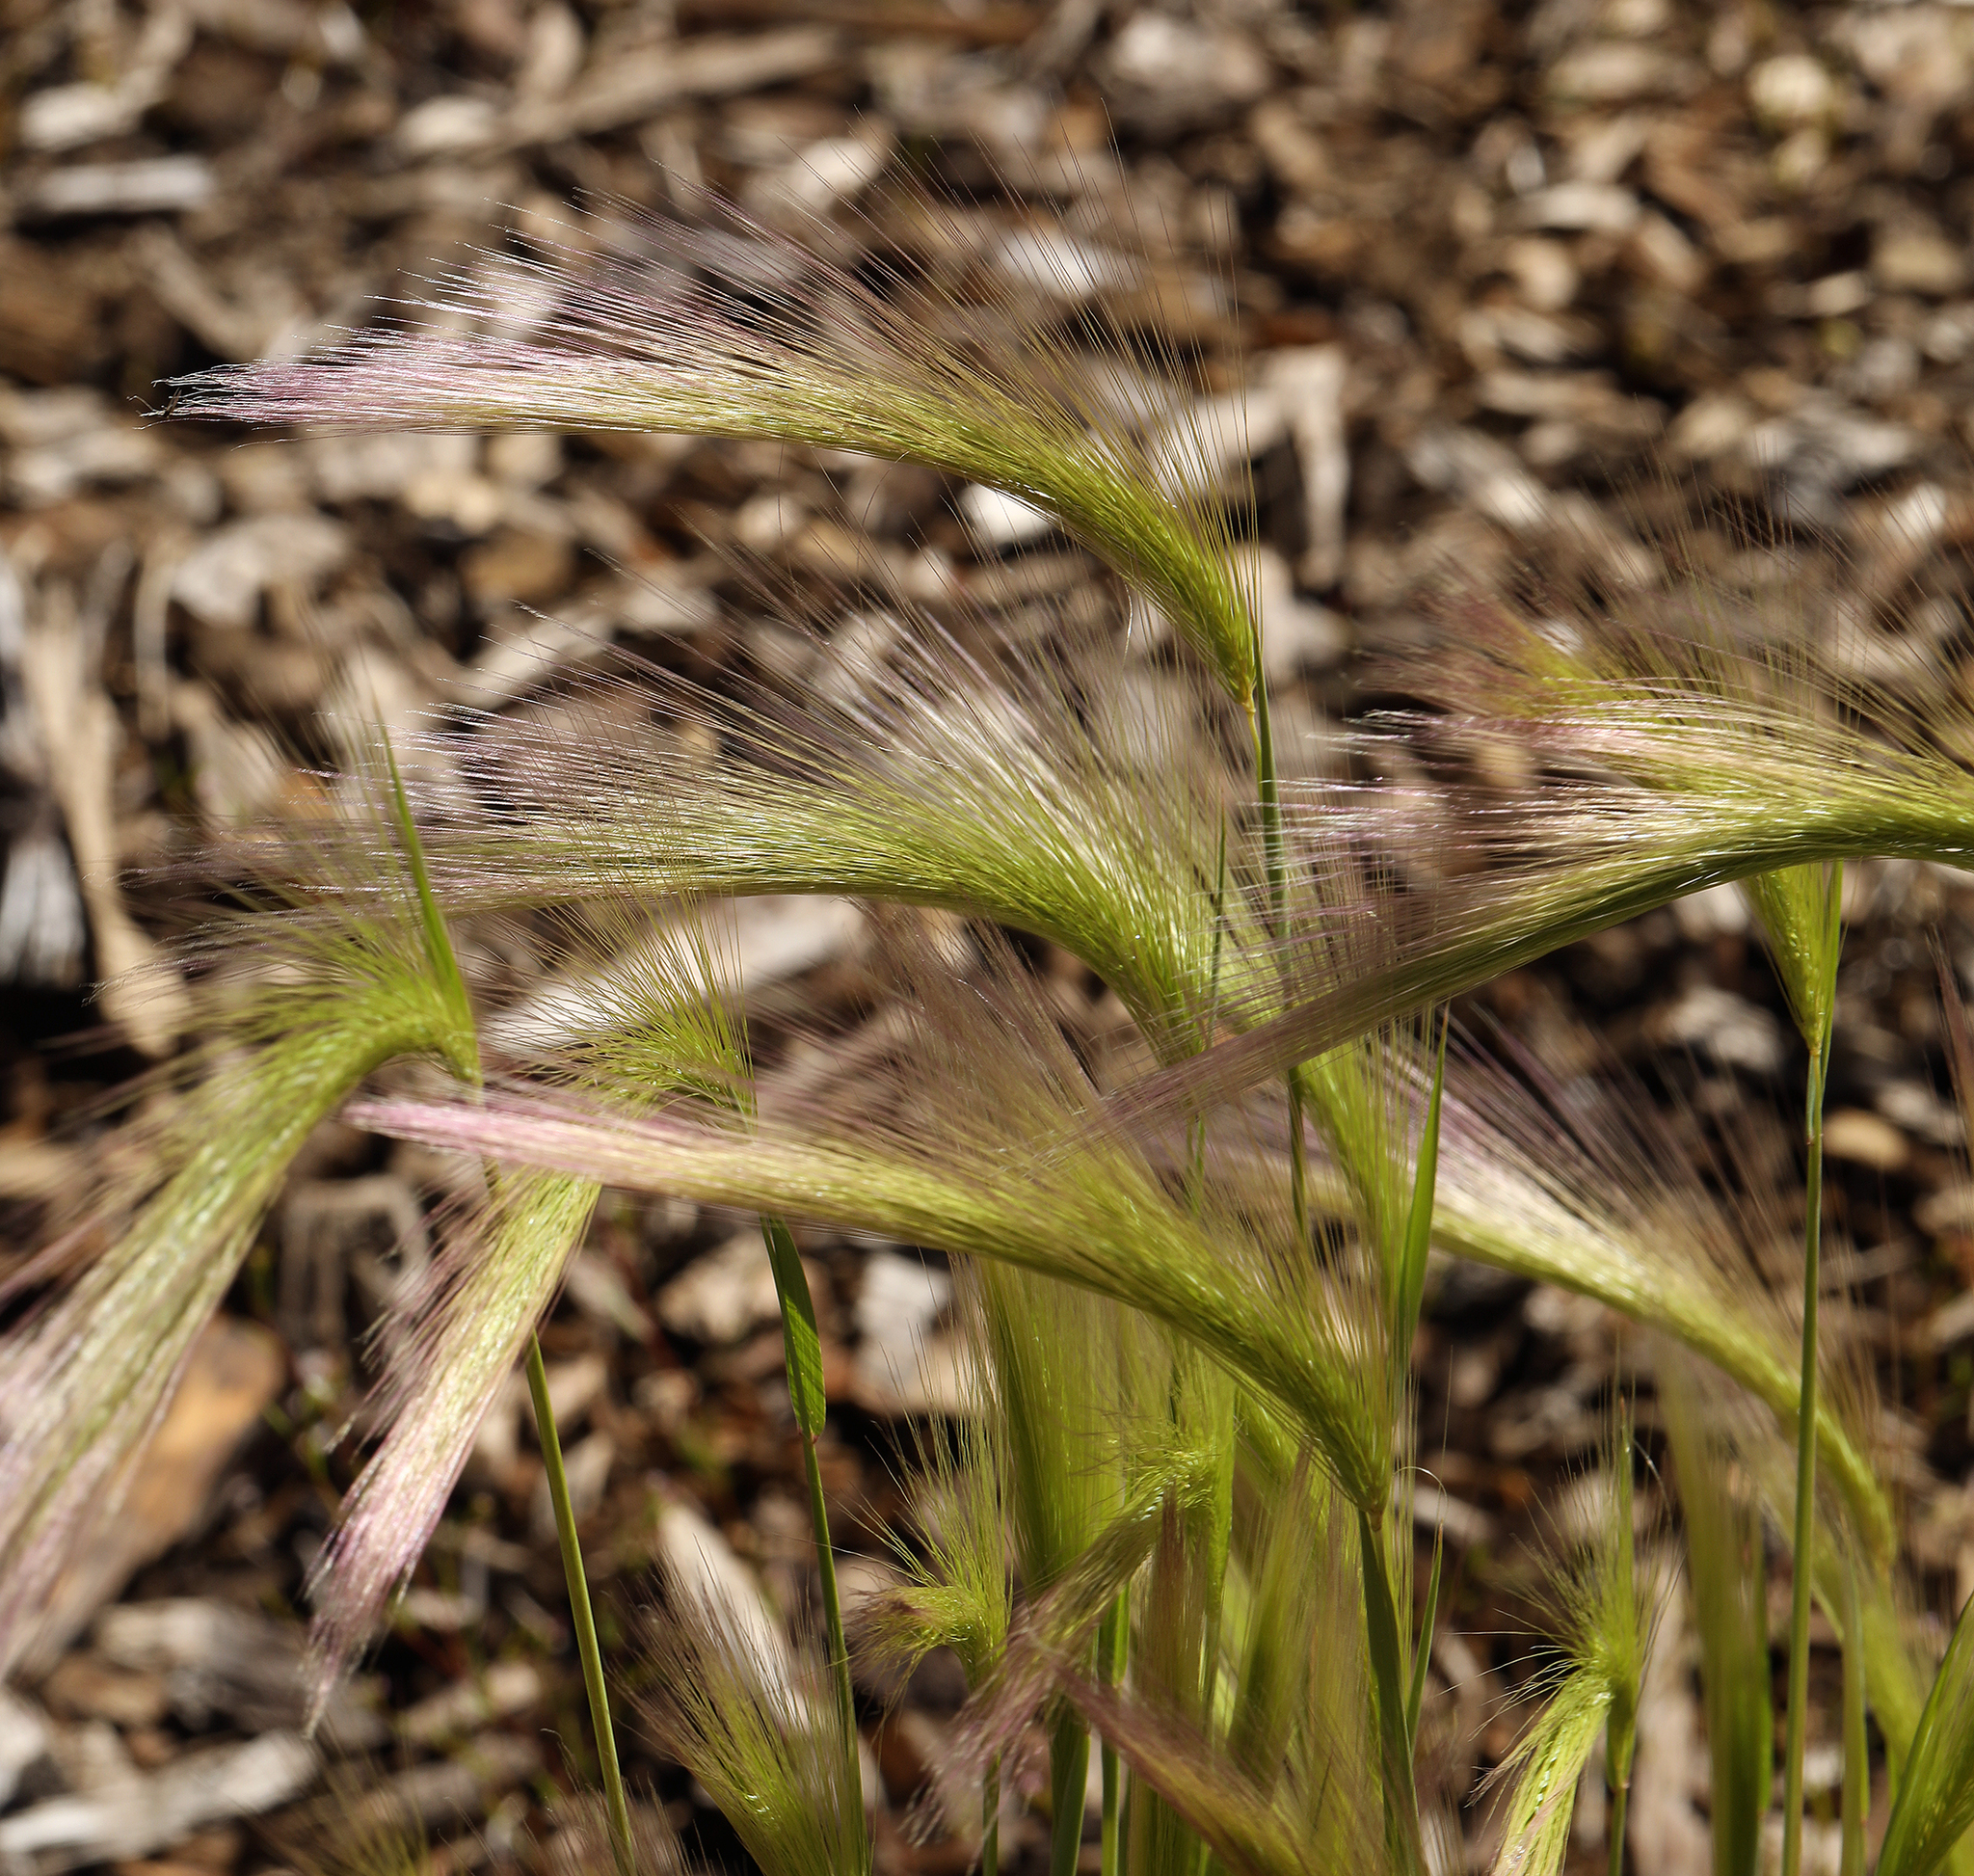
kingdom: Plantae
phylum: Tracheophyta
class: Liliopsida
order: Poales
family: Poaceae
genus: Hordeum
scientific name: Hordeum jubatum
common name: Foxtail barley
